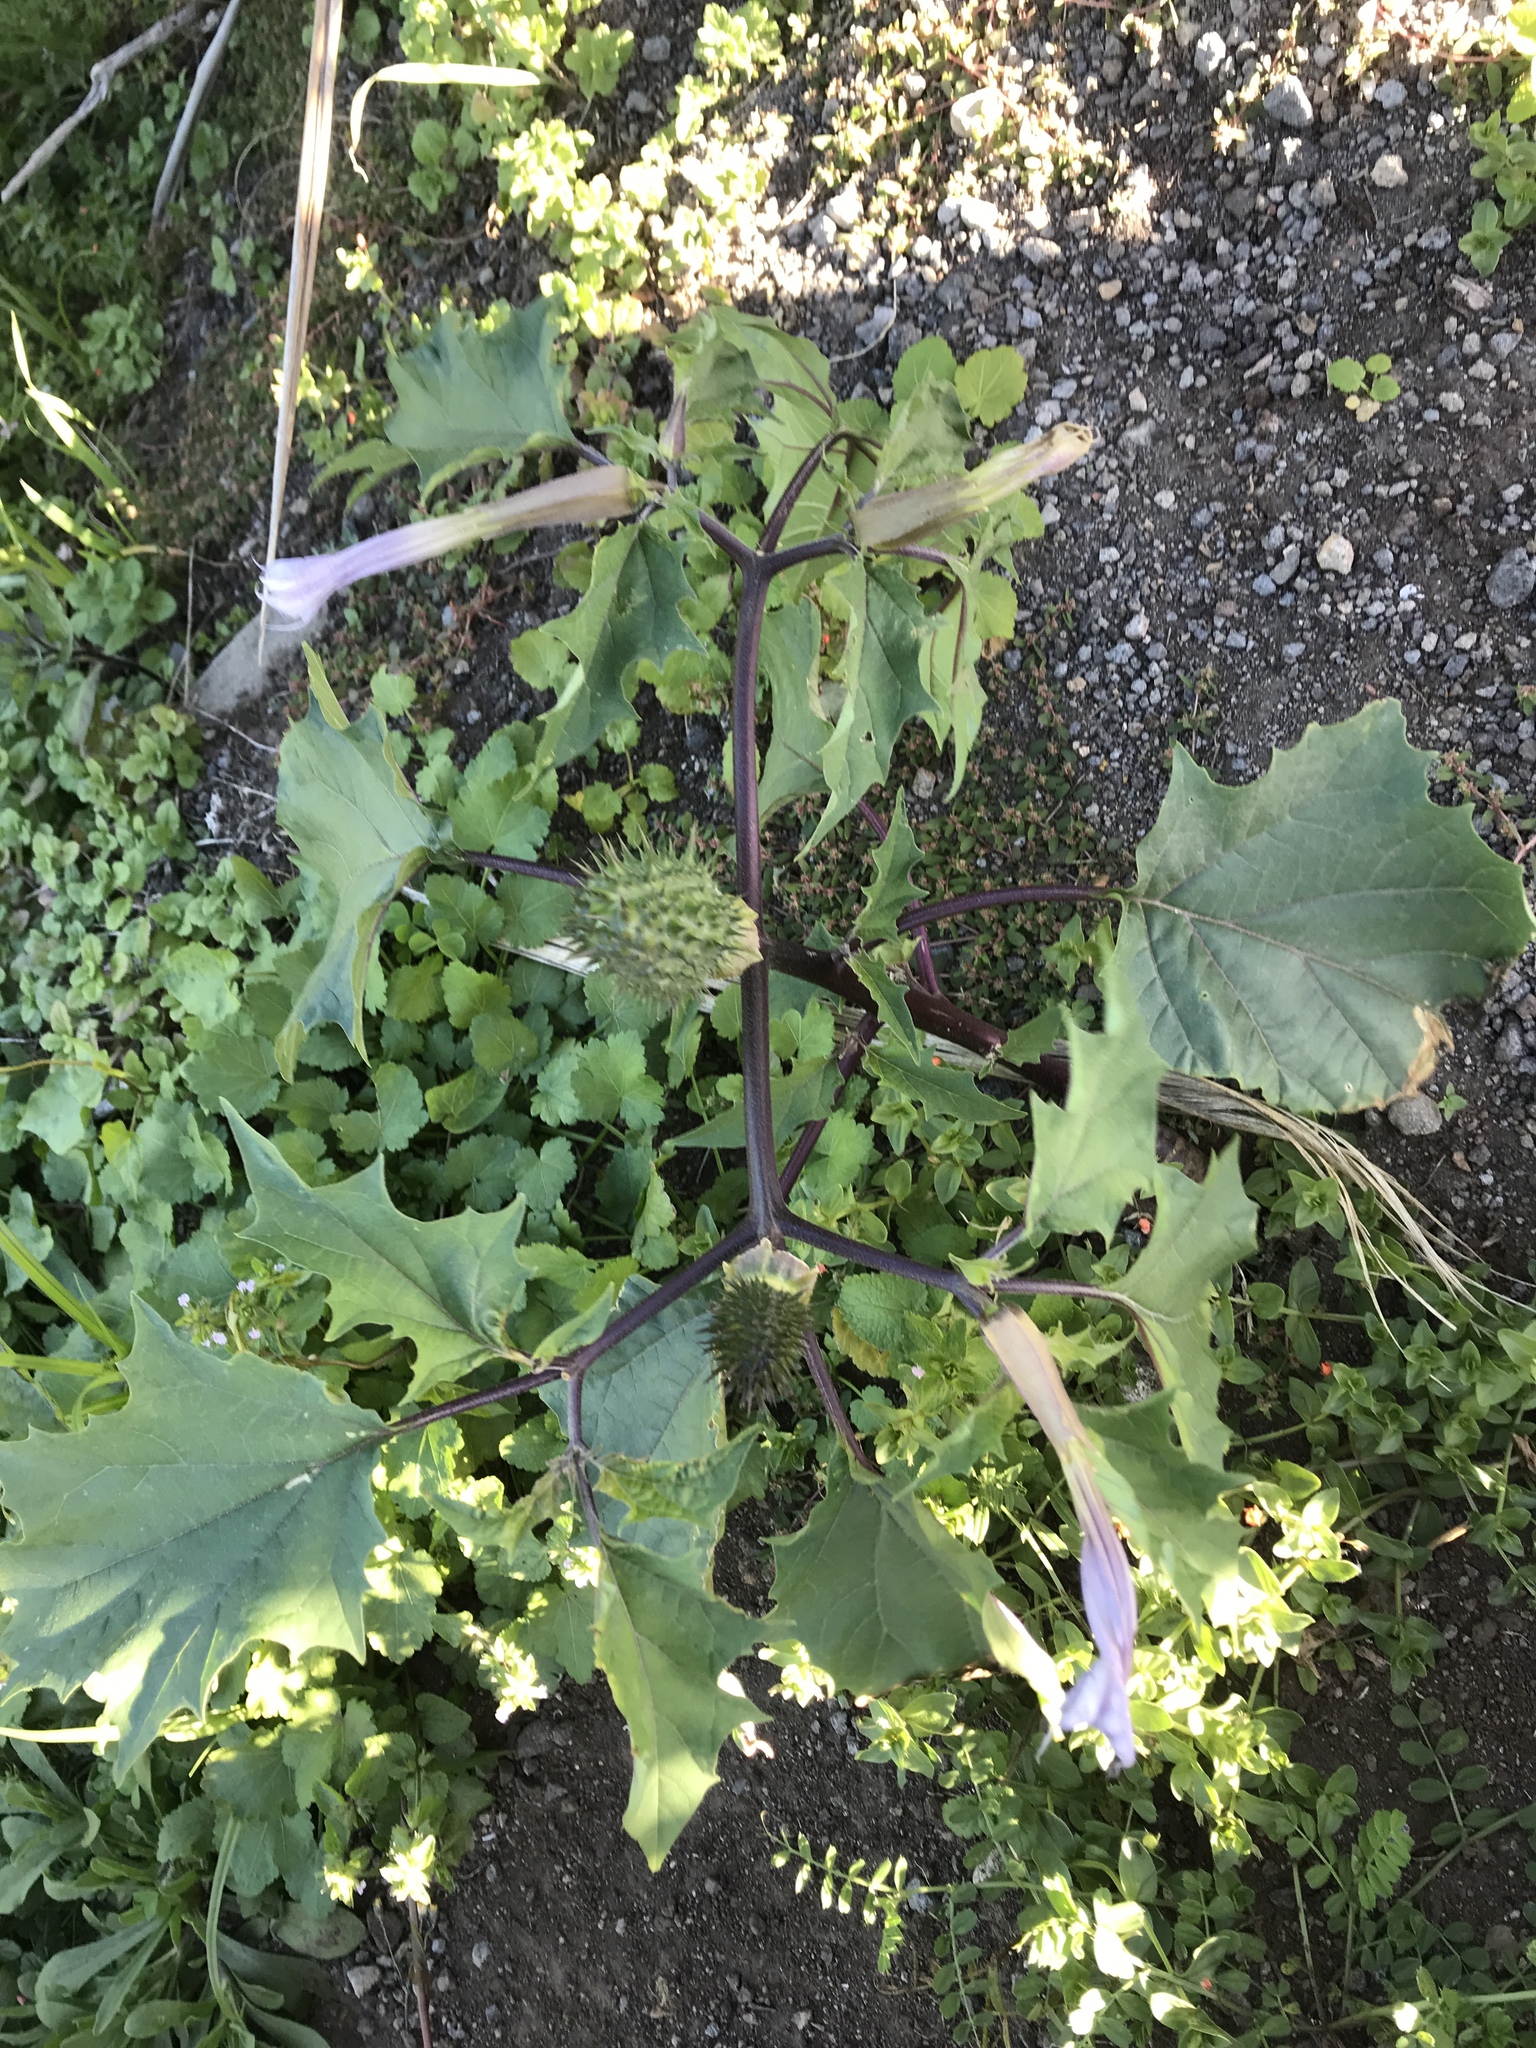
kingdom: Plantae
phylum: Tracheophyta
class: Magnoliopsida
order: Solanales
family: Solanaceae
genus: Datura
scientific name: Datura stramonium
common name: Thorn-apple
